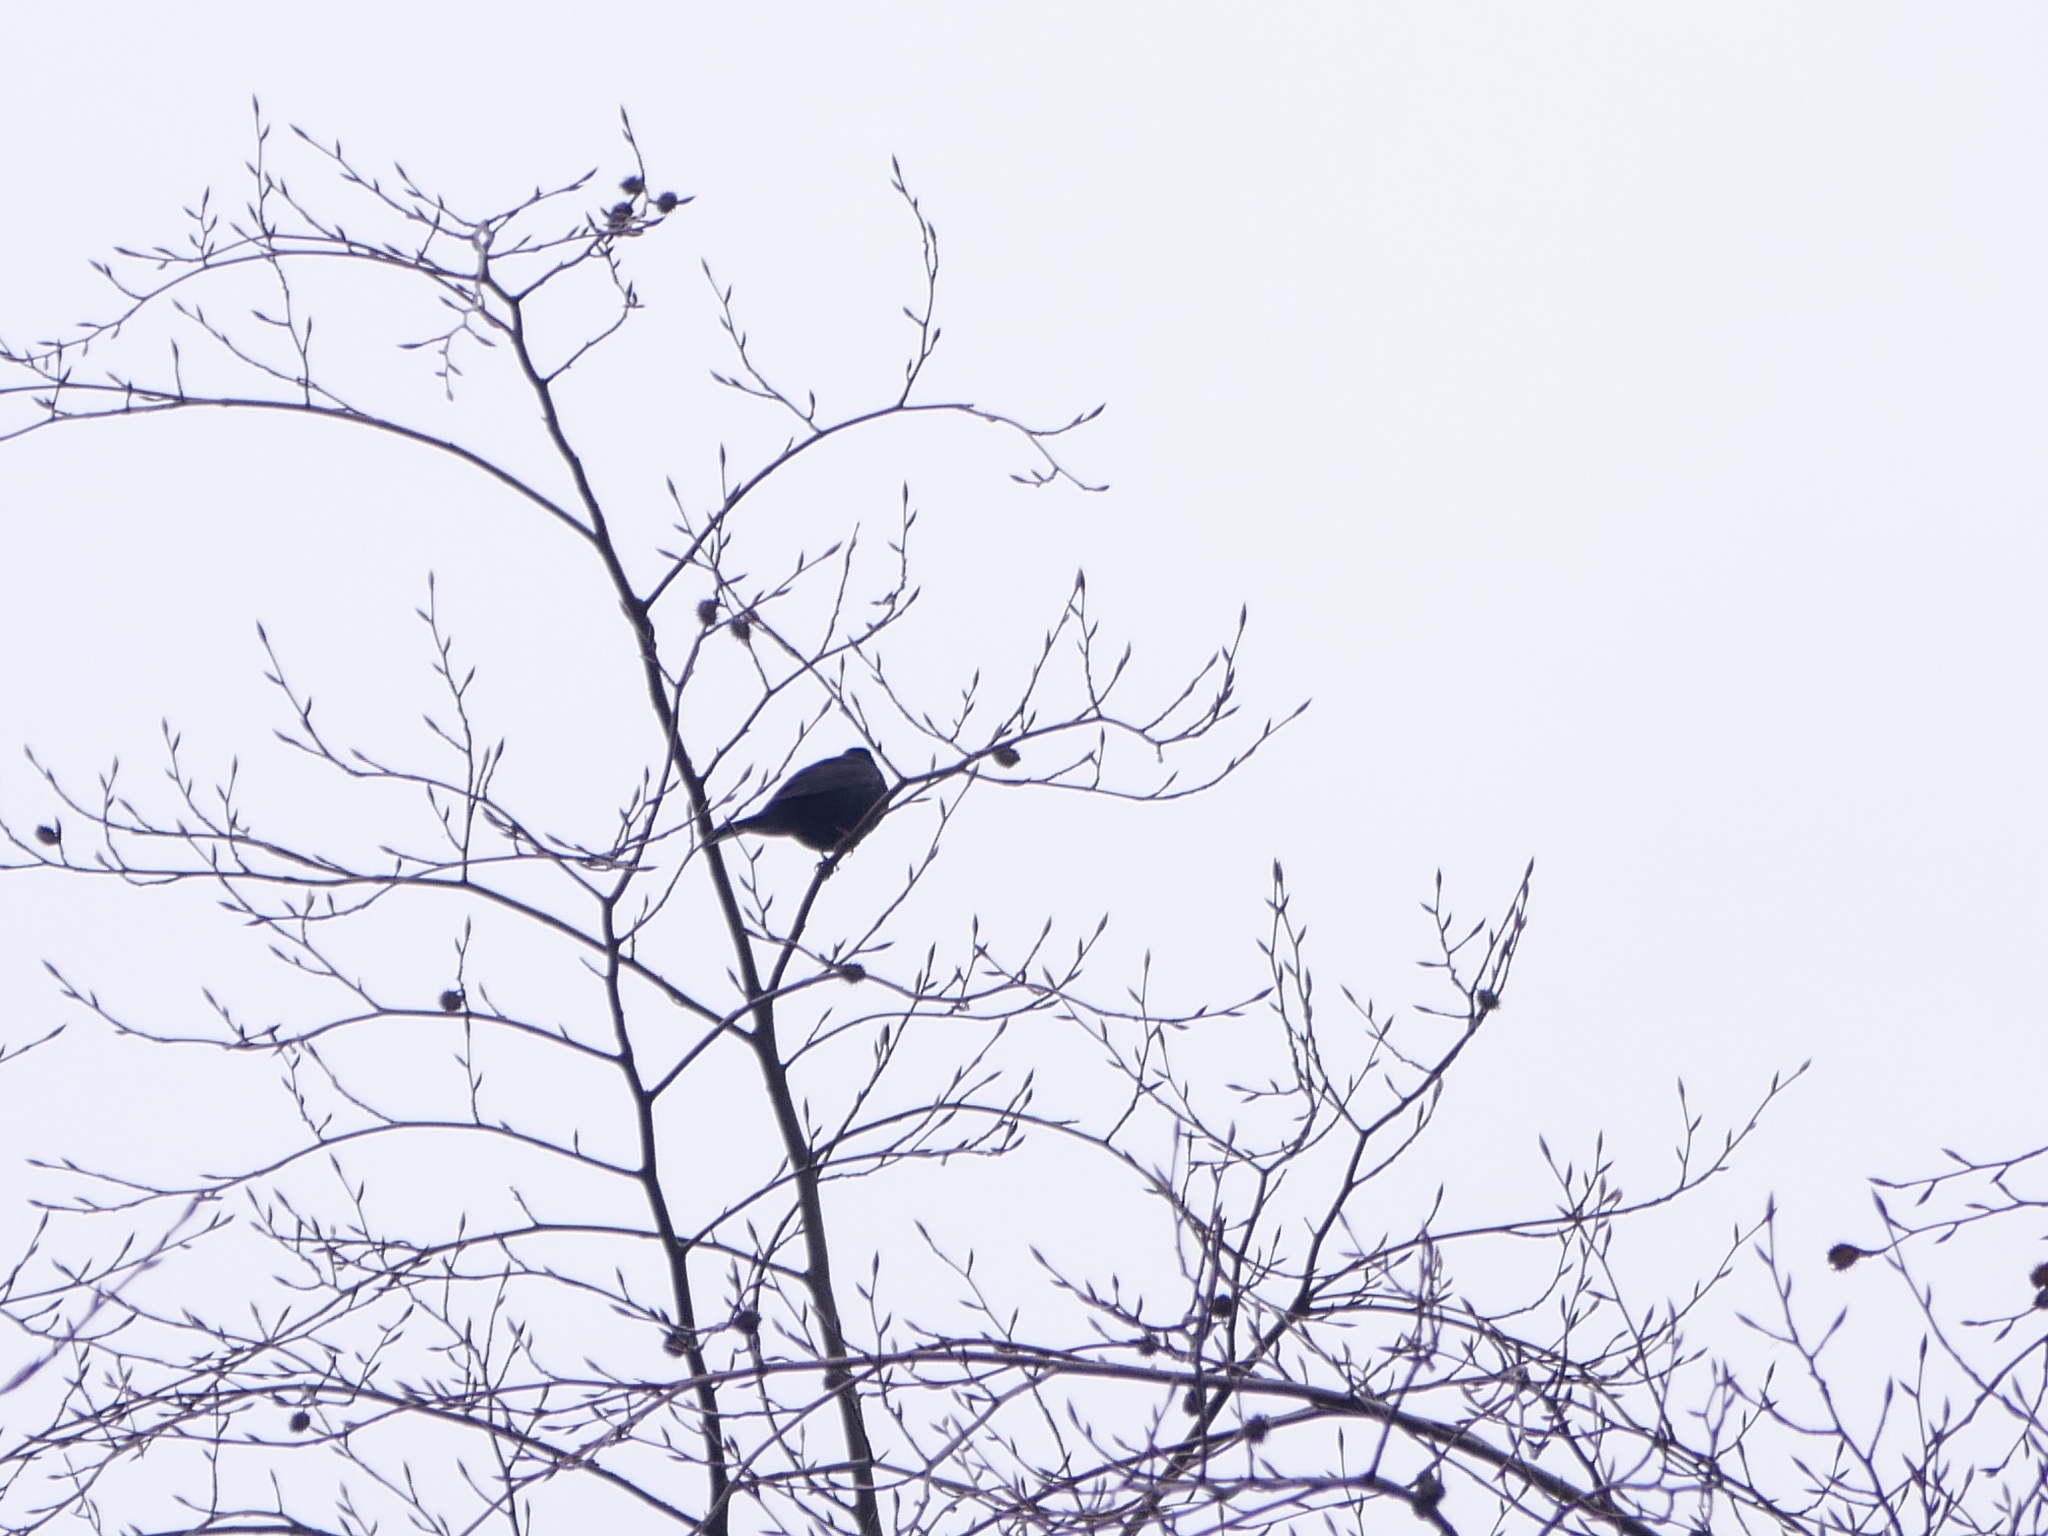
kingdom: Animalia
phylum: Chordata
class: Aves
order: Passeriformes
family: Turdidae
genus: Turdus
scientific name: Turdus merula
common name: Common blackbird
